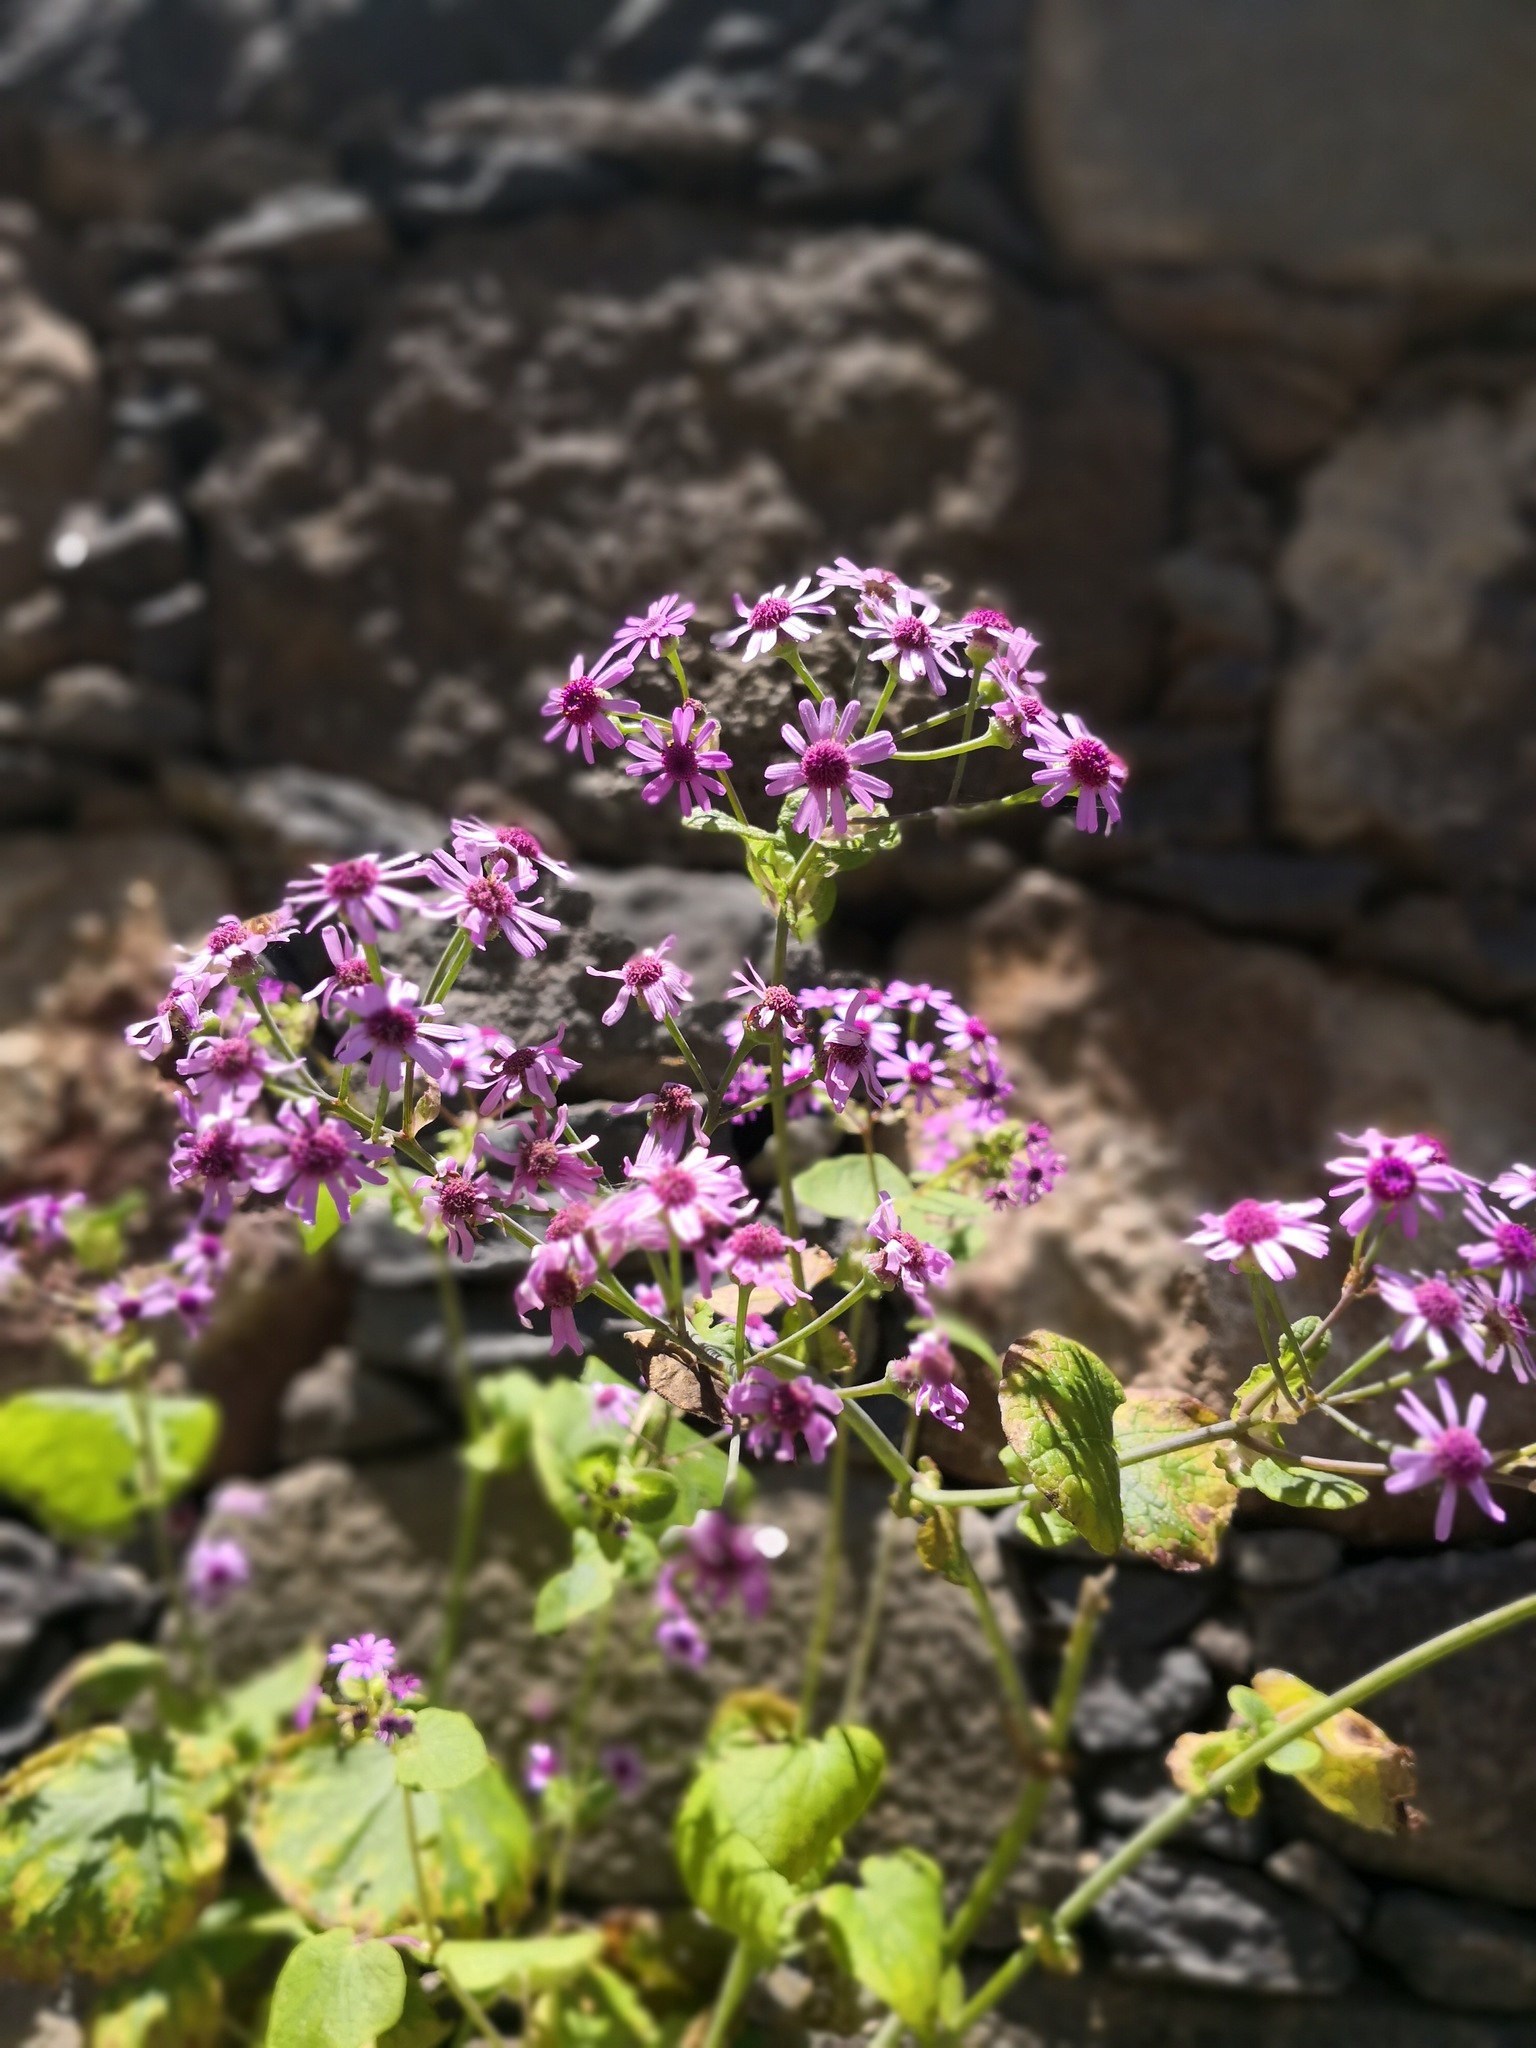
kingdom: Plantae
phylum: Tracheophyta
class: Magnoliopsida
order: Asterales
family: Asteraceae
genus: Pericallis
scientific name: Pericallis webbii
